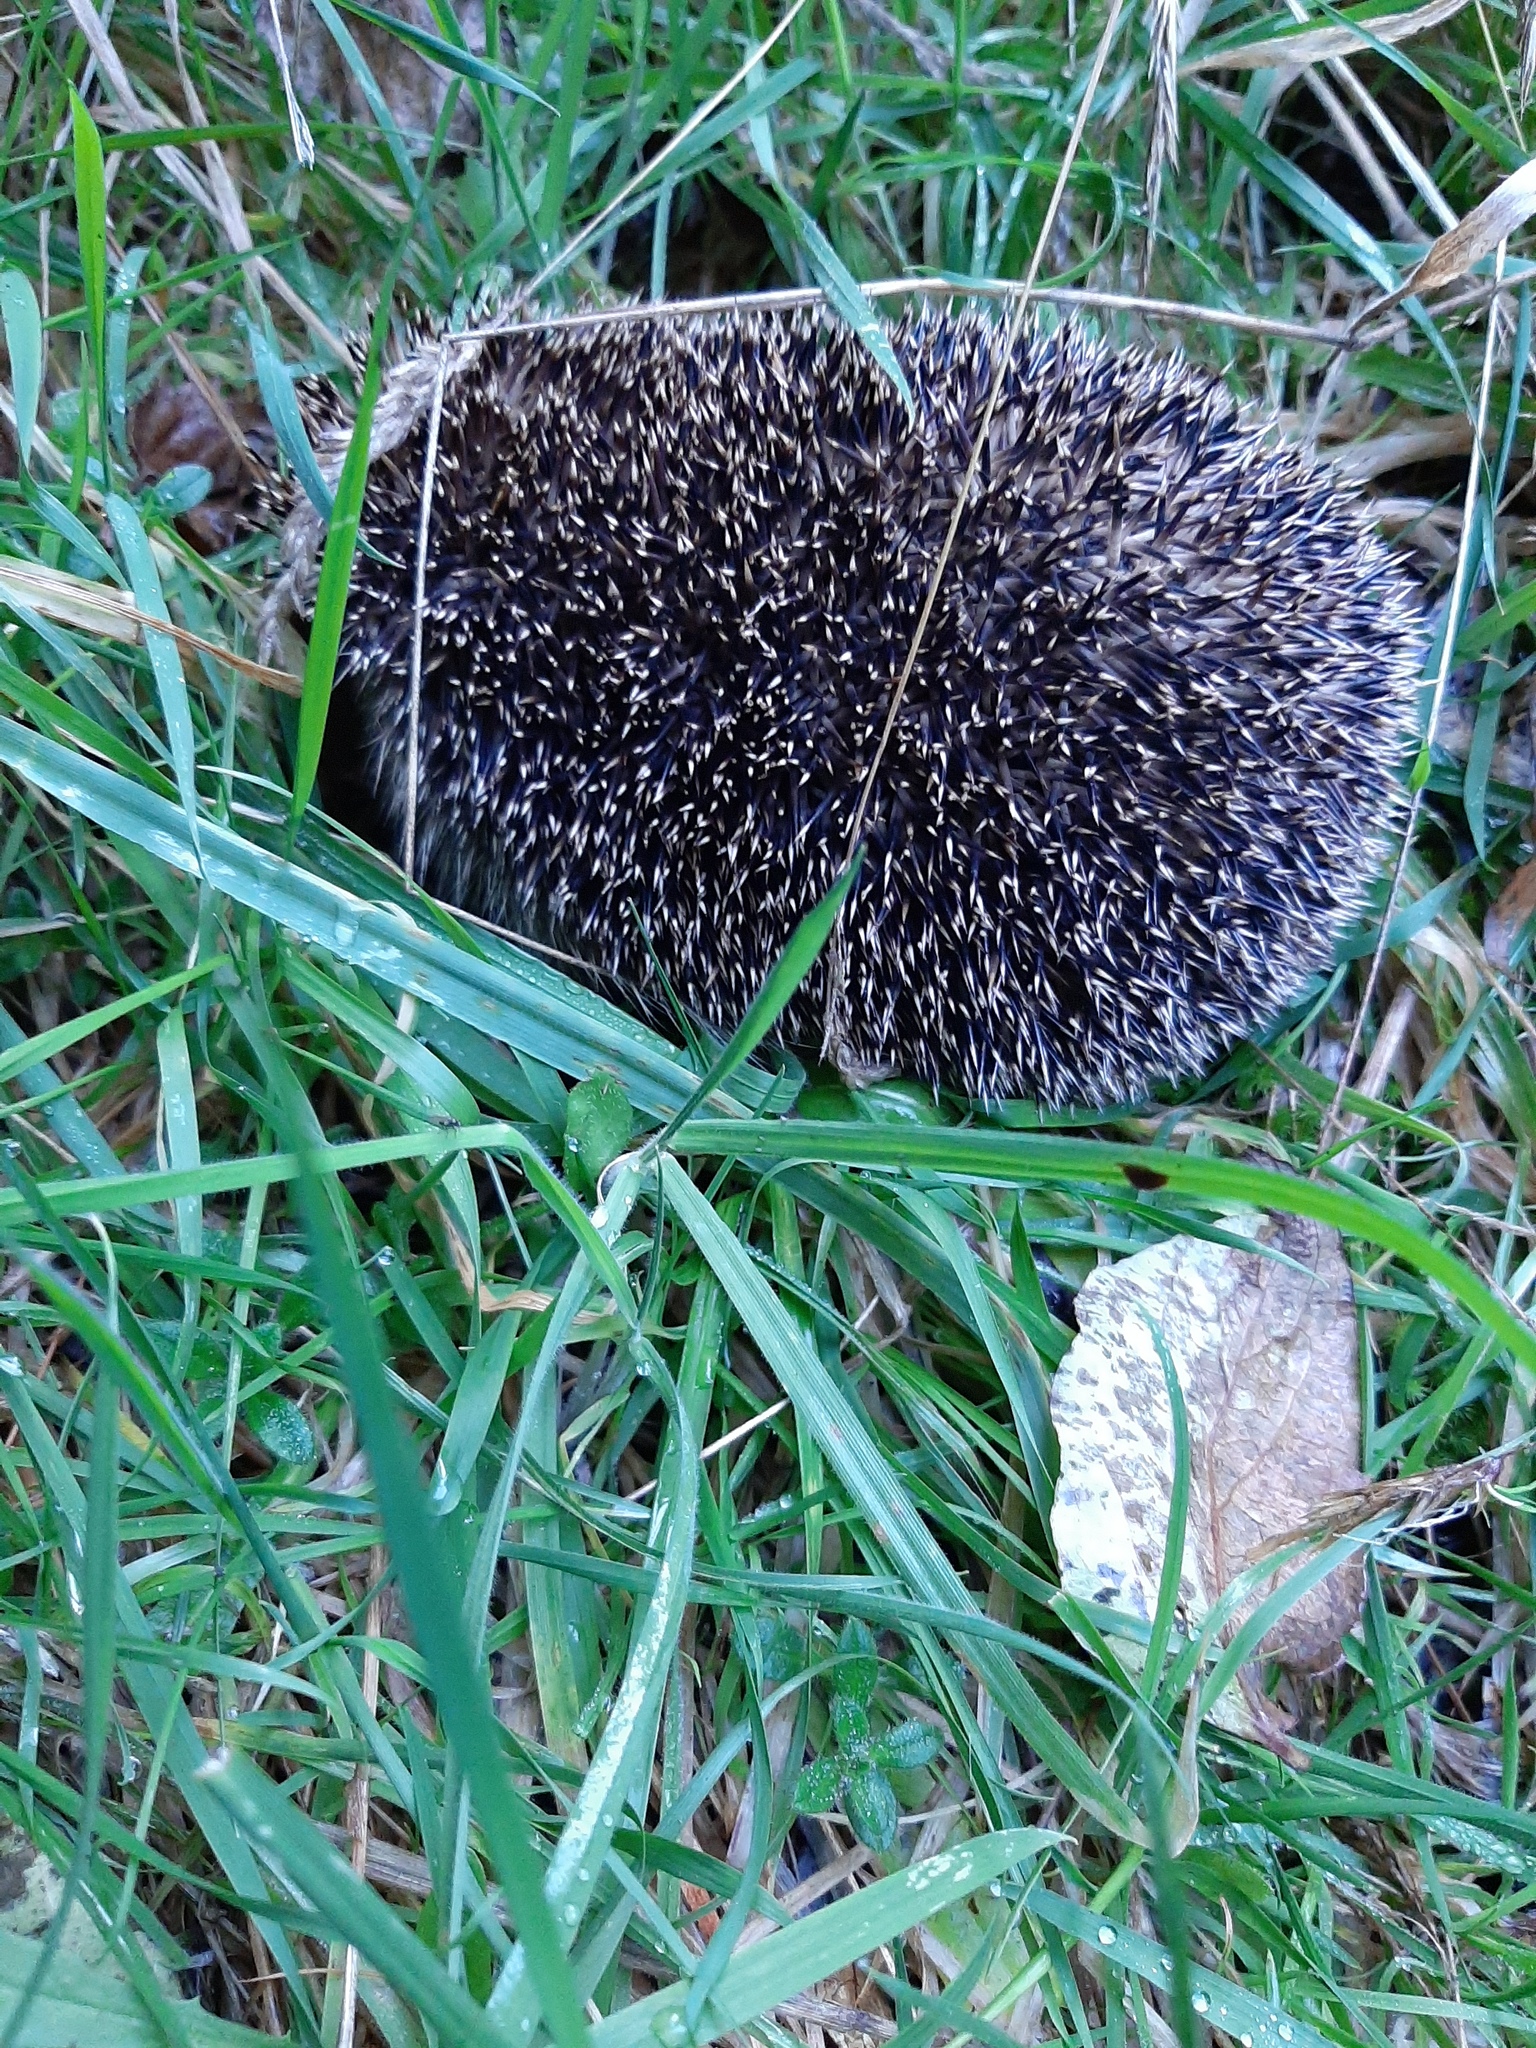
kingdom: Animalia
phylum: Chordata
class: Mammalia
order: Erinaceomorpha
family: Erinaceidae
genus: Erinaceus
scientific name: Erinaceus europaeus
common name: West european hedgehog
